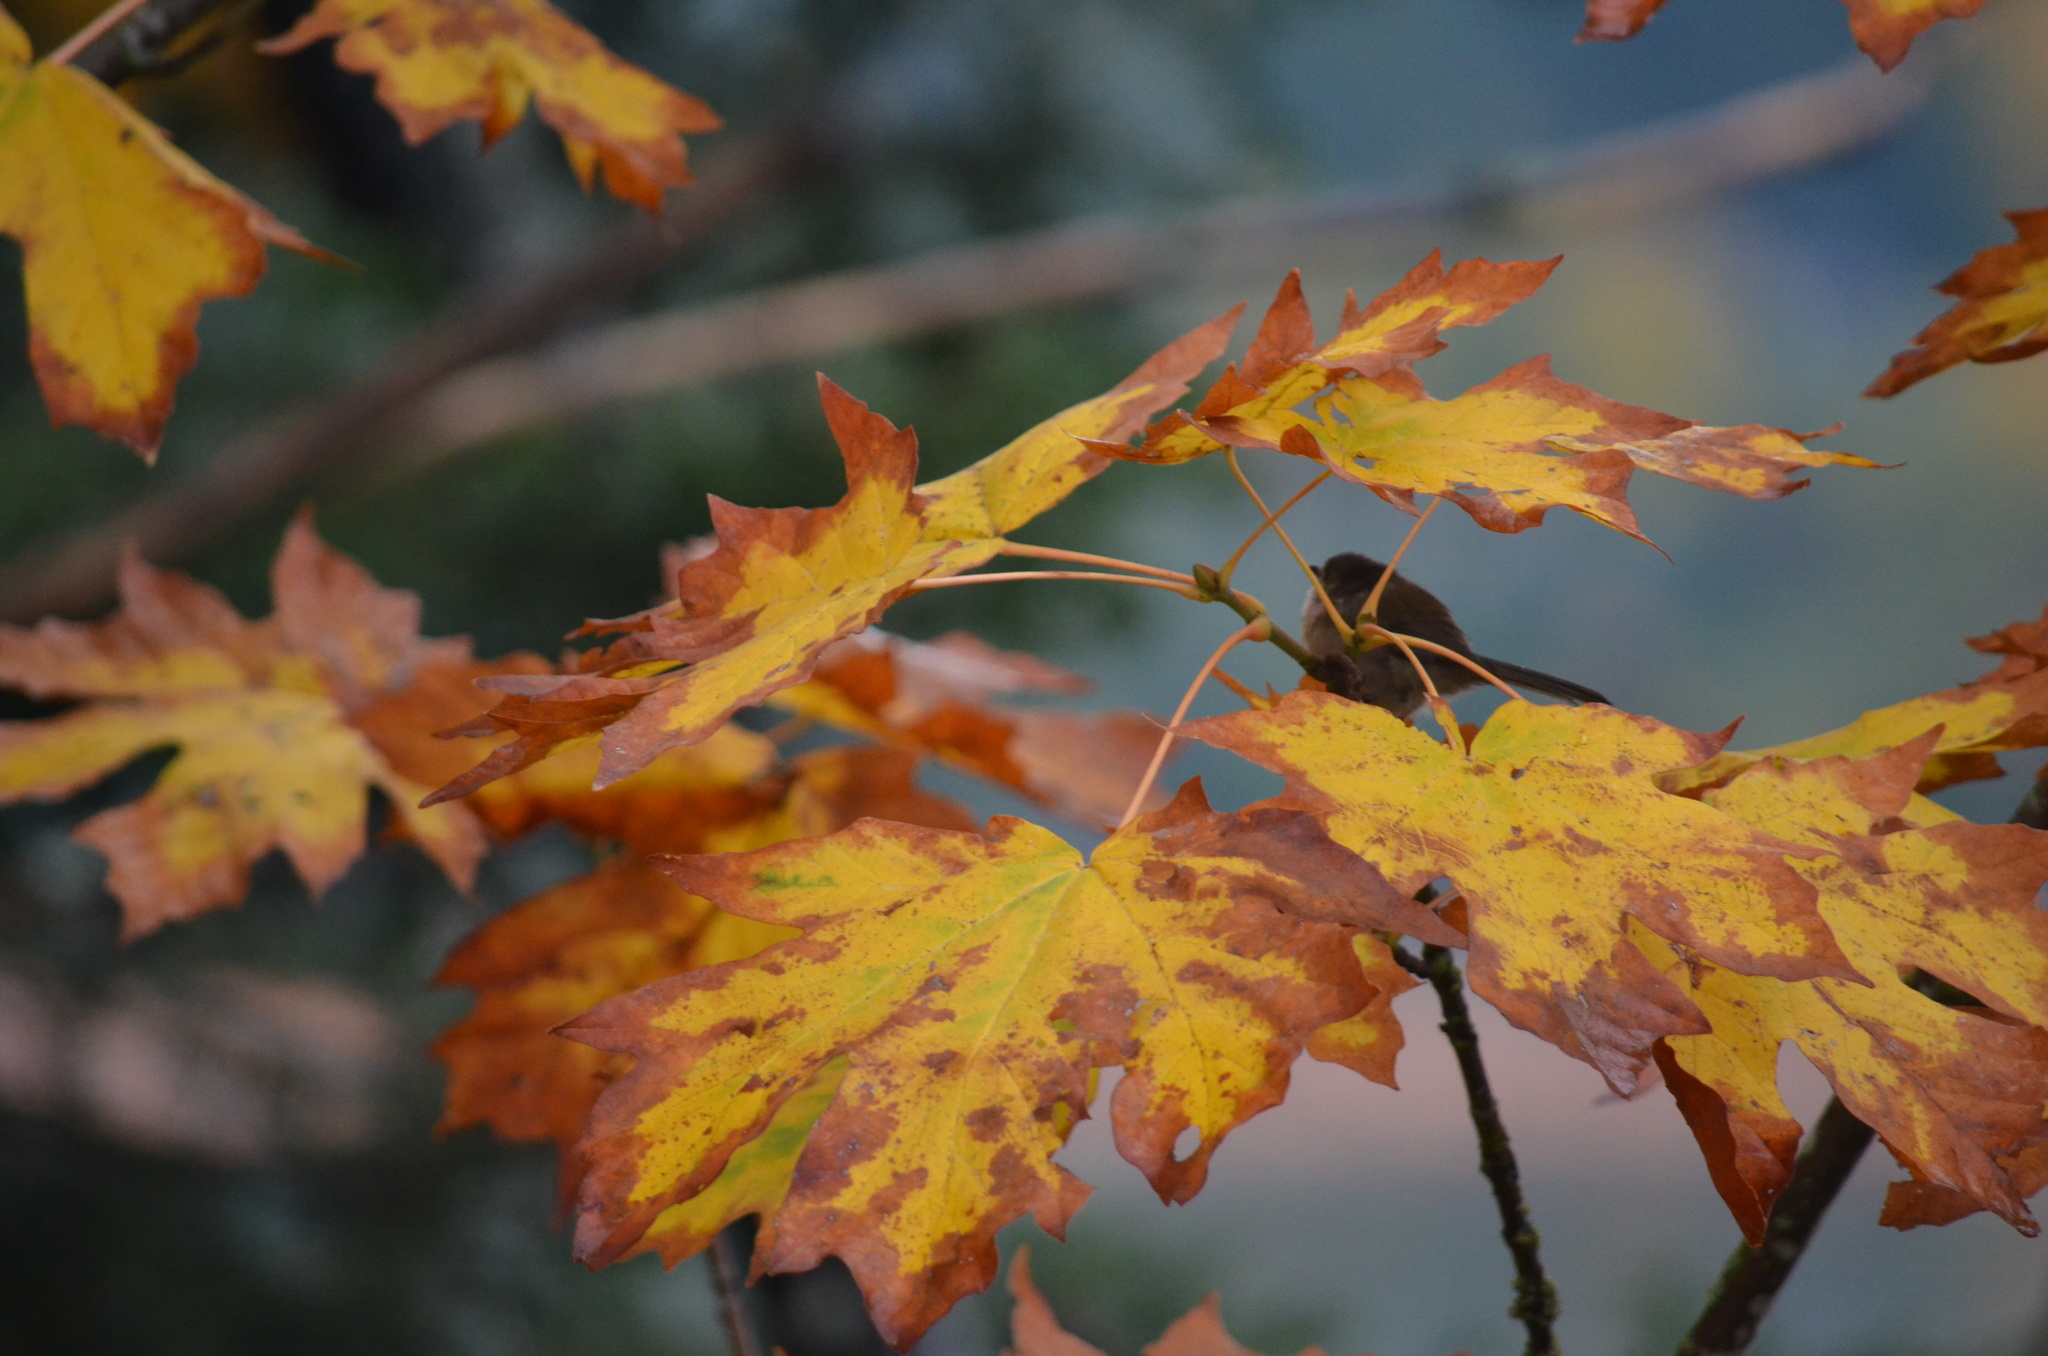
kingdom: Animalia
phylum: Chordata
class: Aves
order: Passeriformes
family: Aegithalidae
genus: Psaltriparus
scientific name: Psaltriparus minimus
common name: American bushtit
